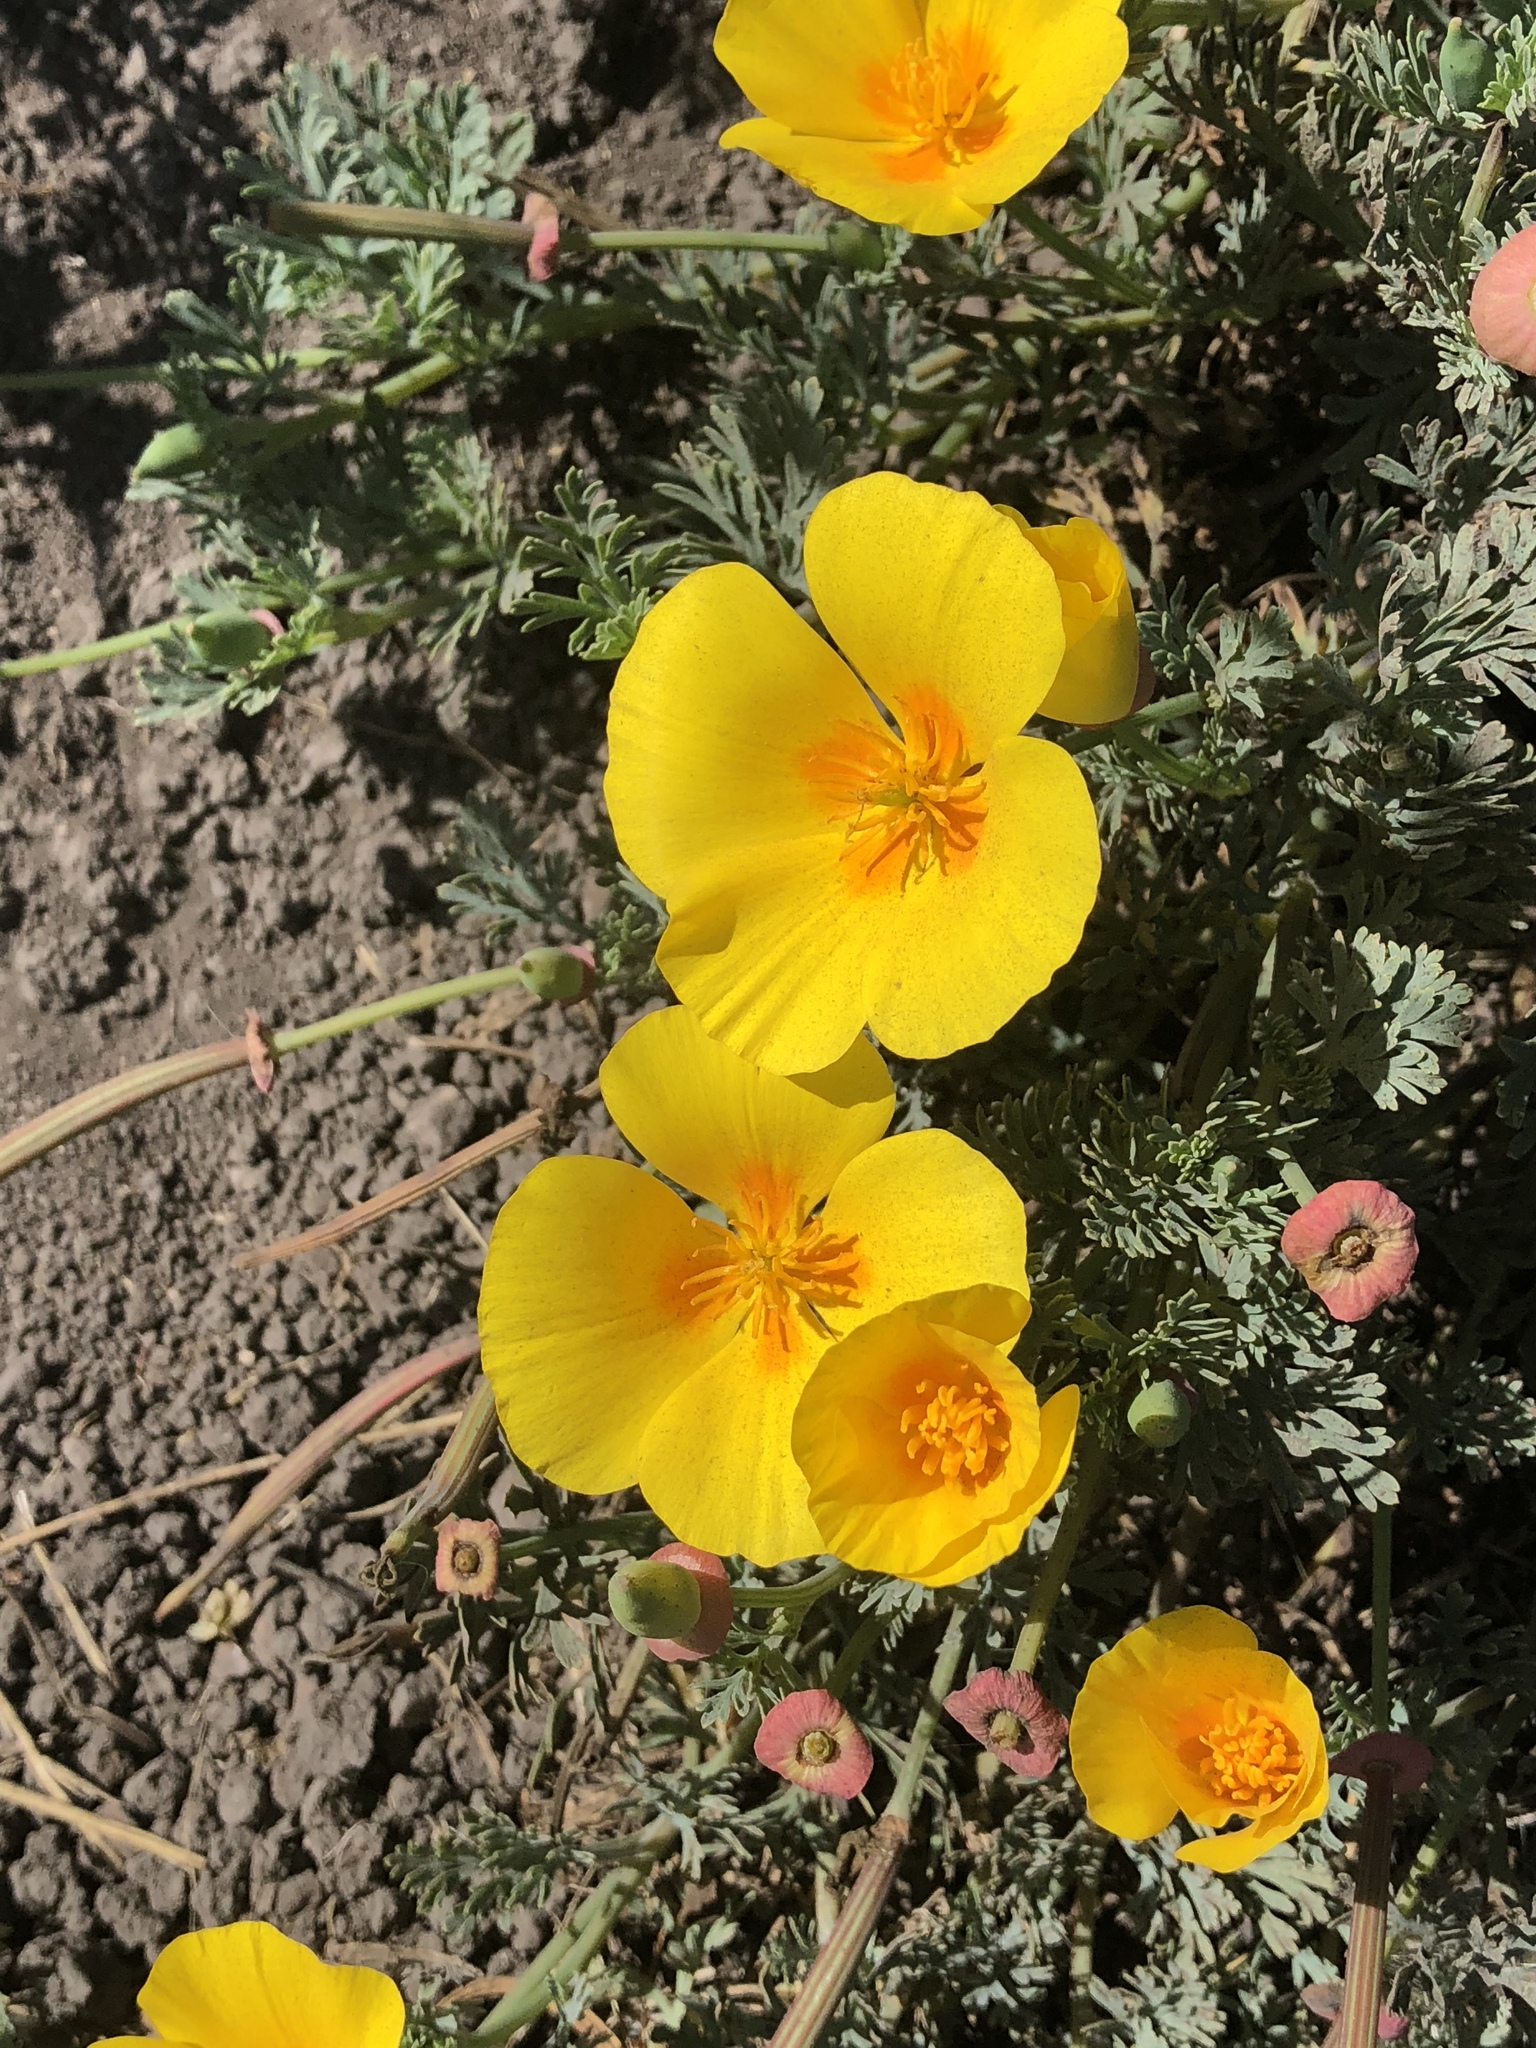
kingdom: Plantae
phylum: Tracheophyta
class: Magnoliopsida
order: Ranunculales
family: Papaveraceae
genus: Eschscholzia
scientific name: Eschscholzia californica
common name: California poppy
